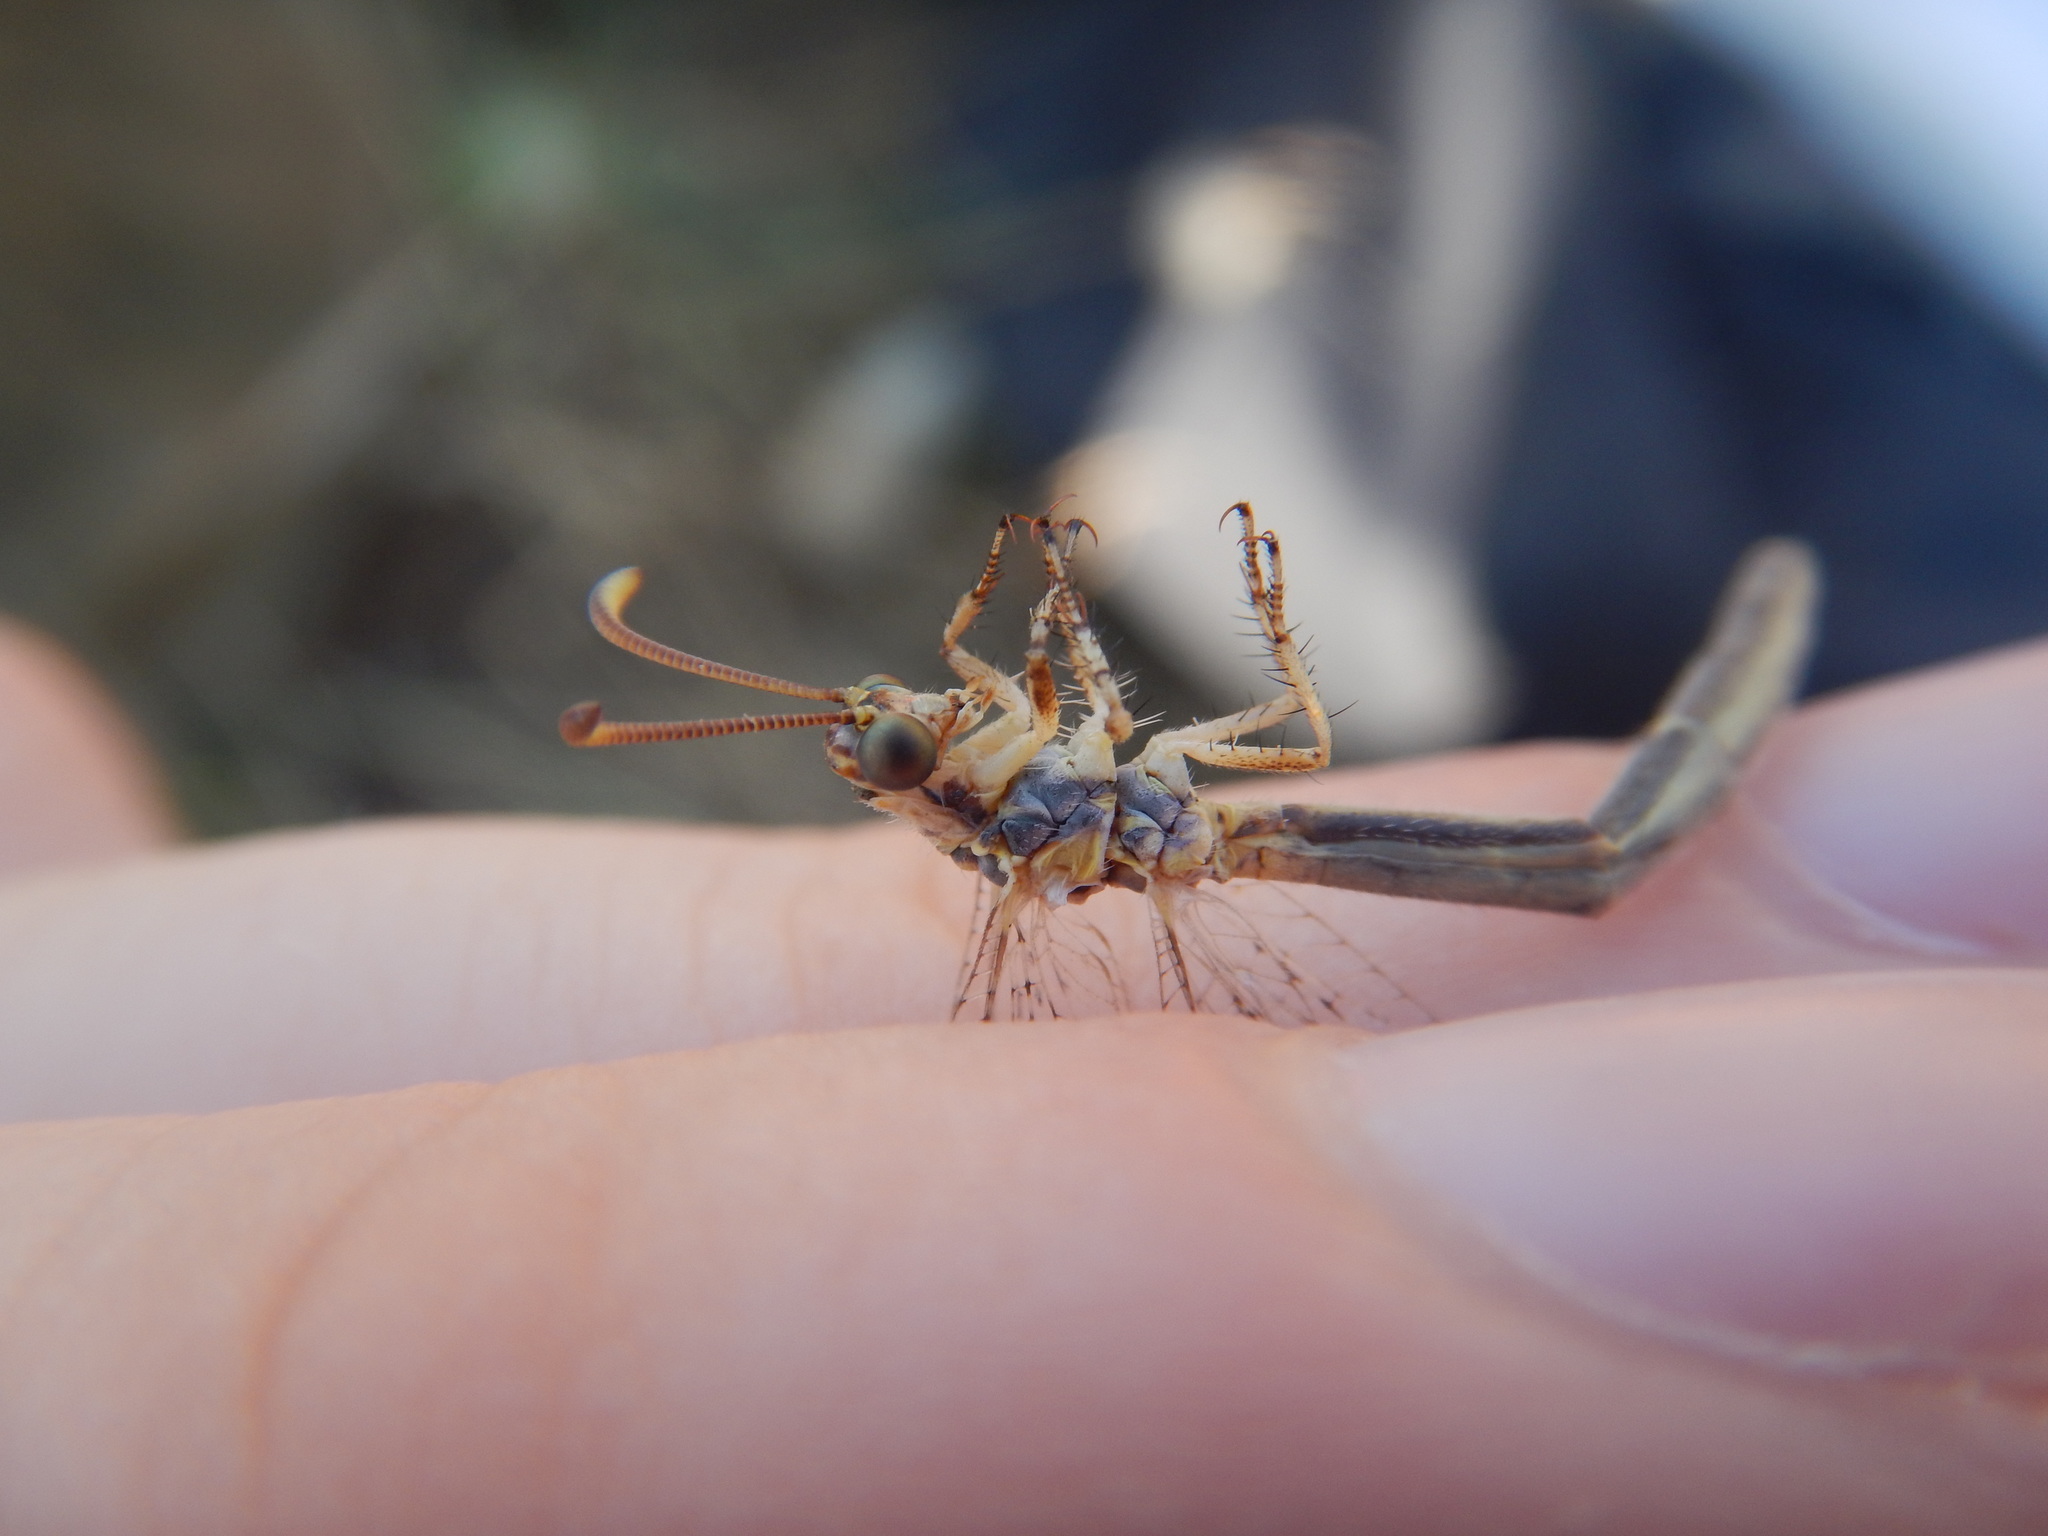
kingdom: Animalia
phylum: Arthropoda
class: Insecta
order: Neuroptera
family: Myrmeleontidae
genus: Macronemurus
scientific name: Macronemurus appendiculatus
